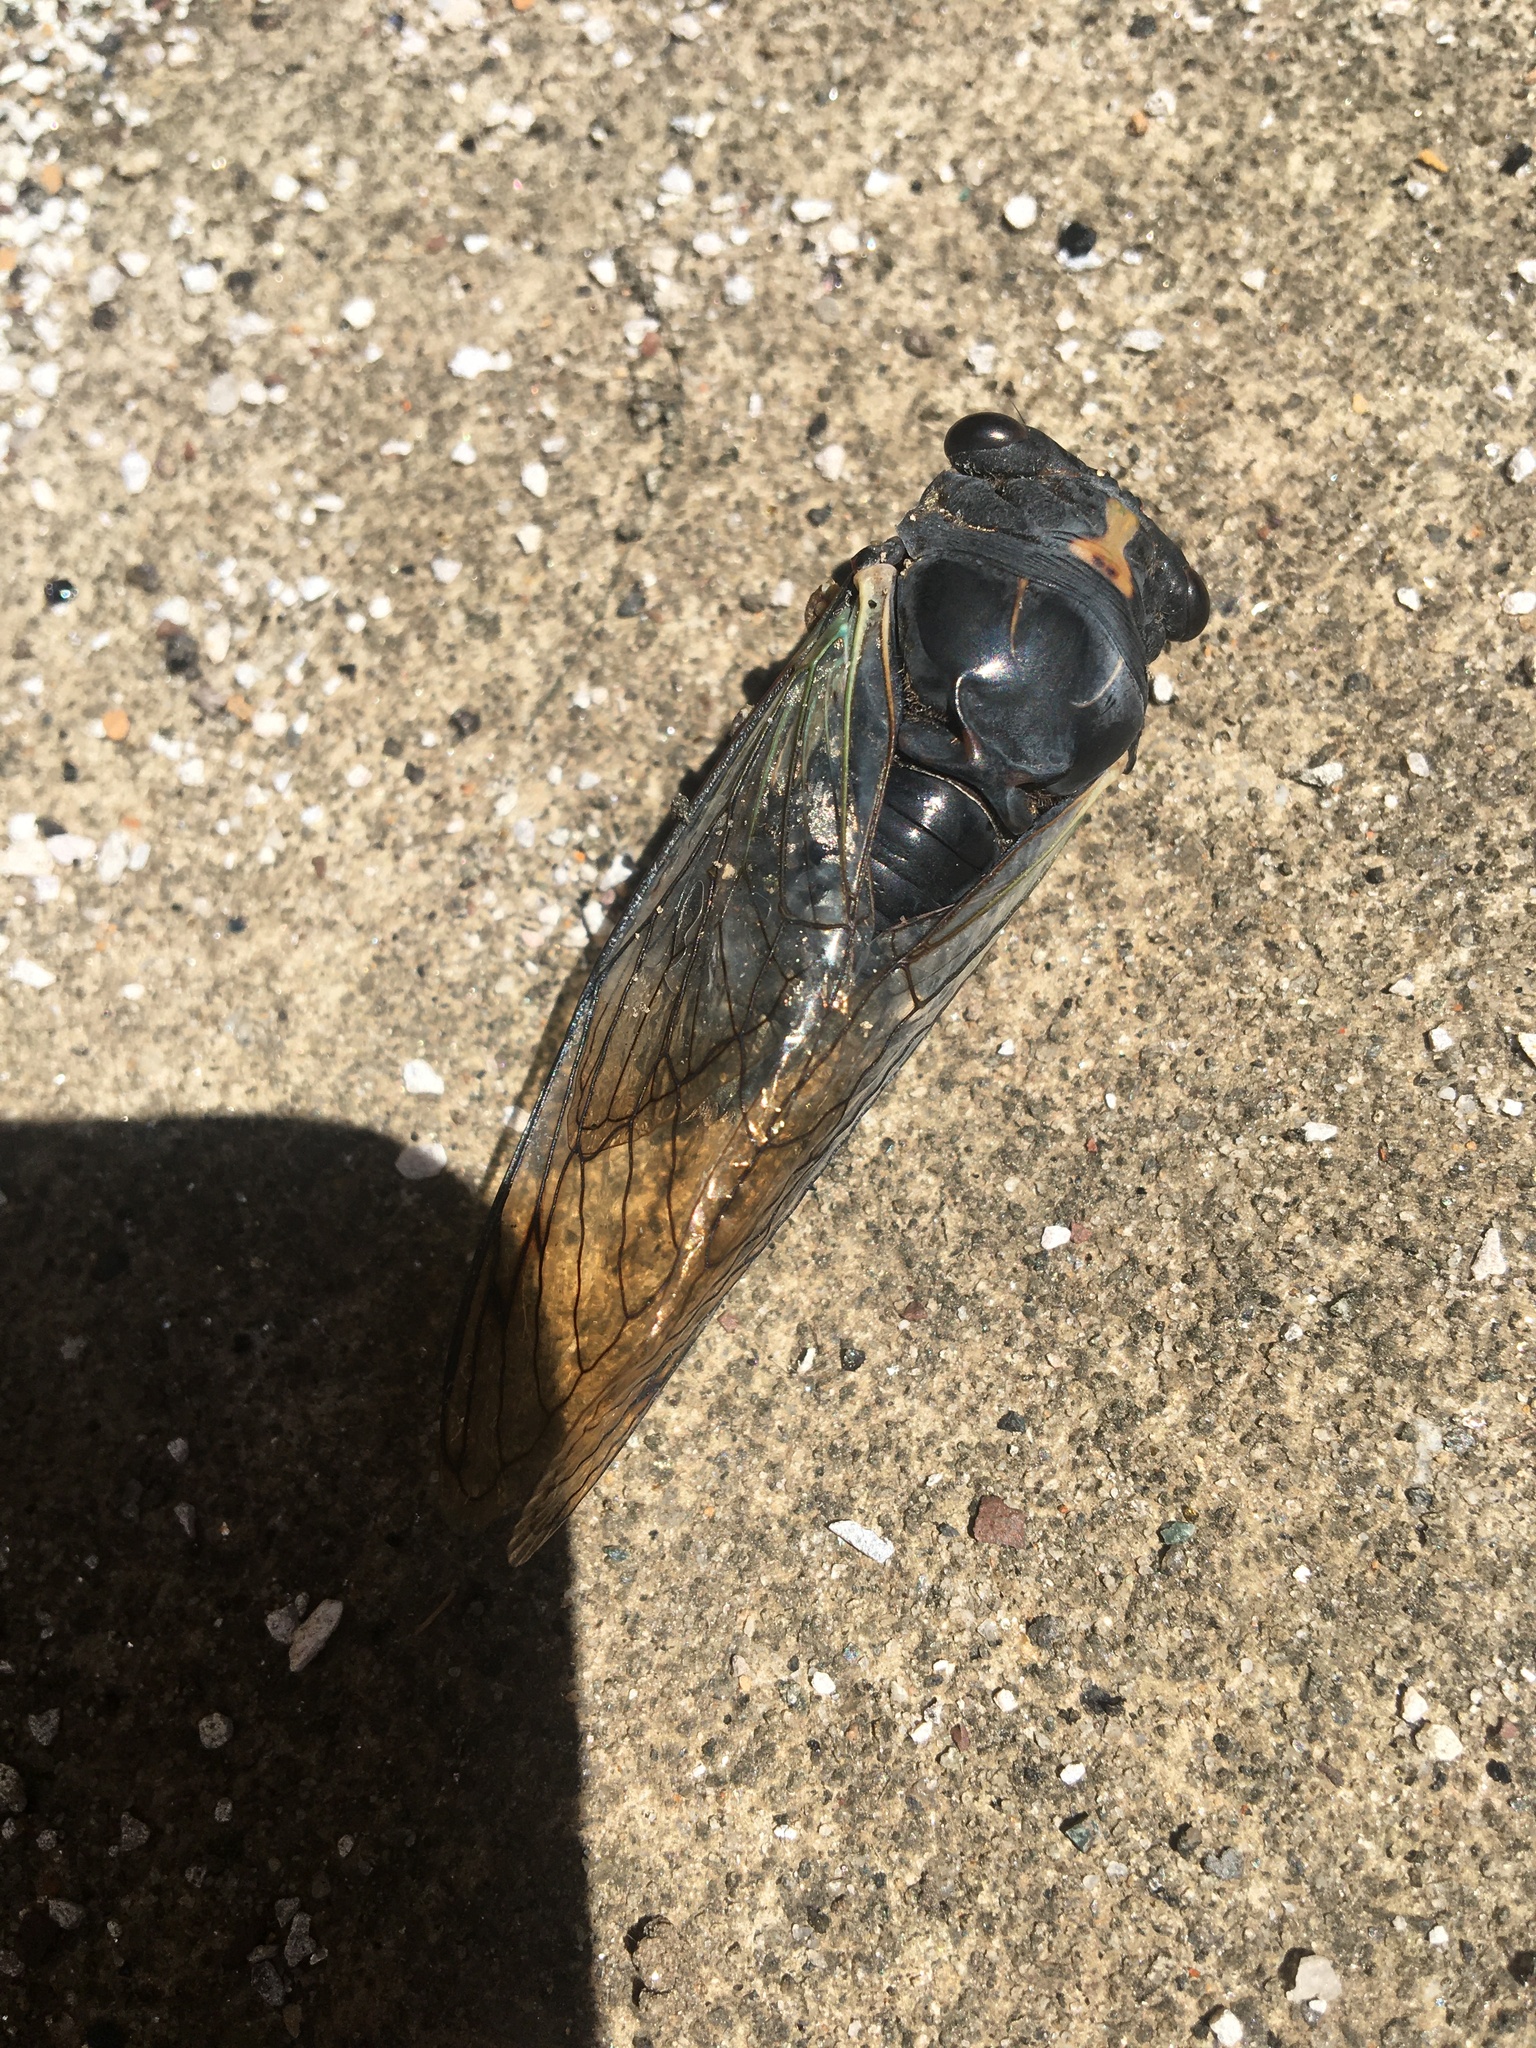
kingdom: Animalia
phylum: Arthropoda
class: Insecta
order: Hemiptera
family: Cicadidae
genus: Neotibicen
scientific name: Neotibicen lyricen
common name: Lyric cicada
